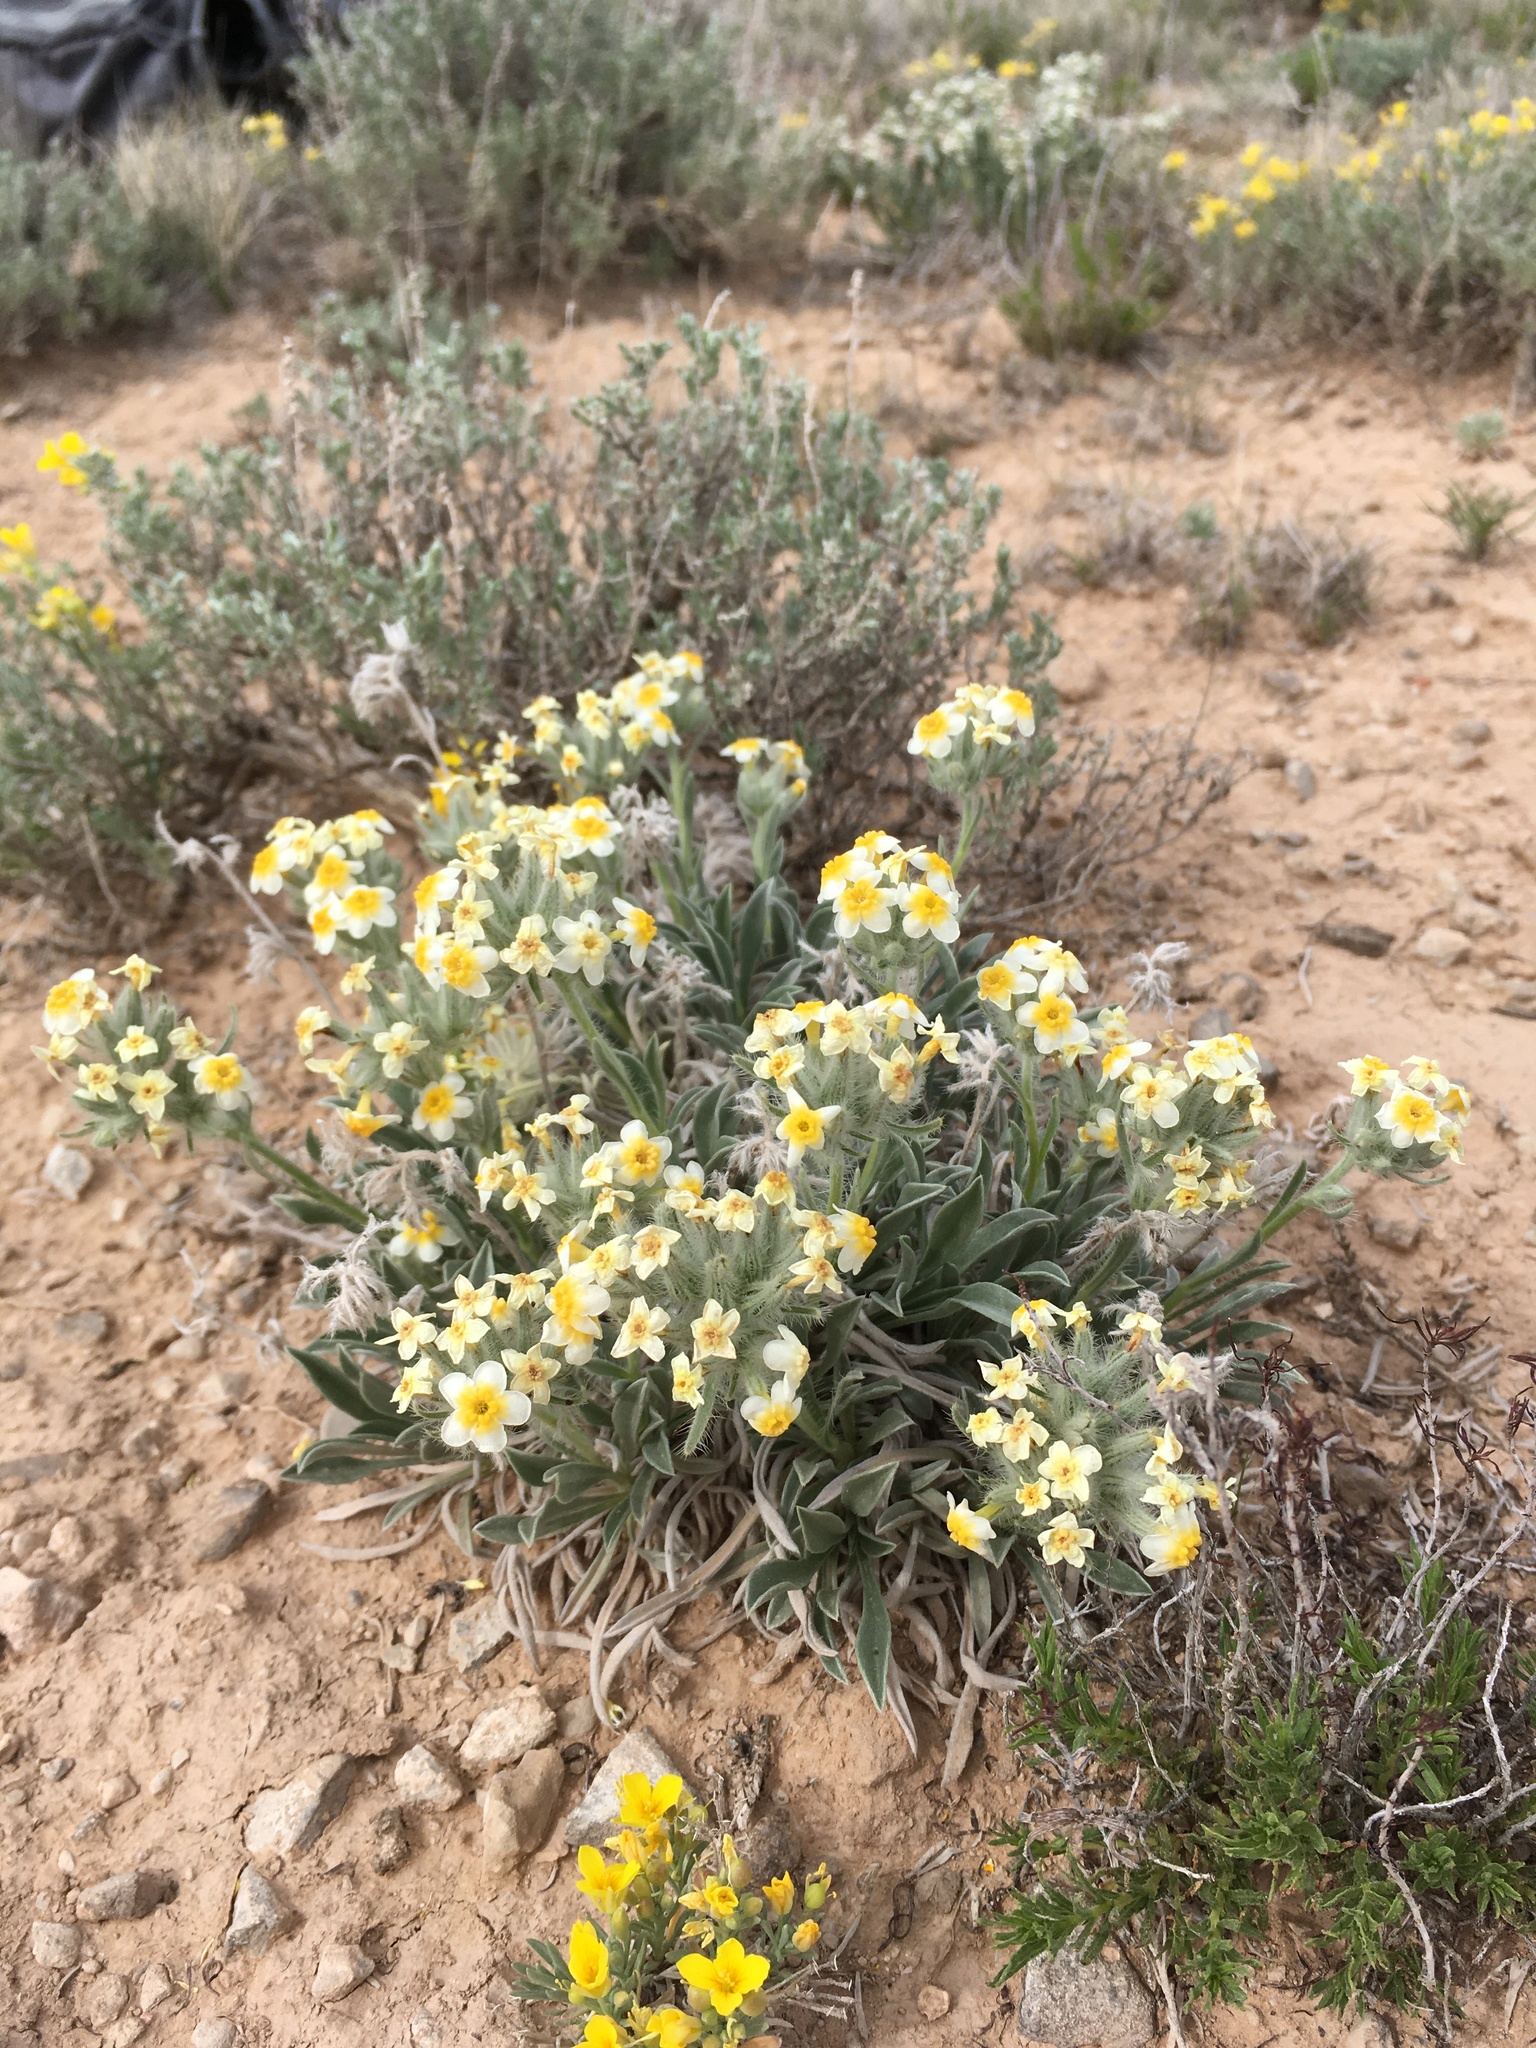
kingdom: Plantae
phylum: Tracheophyta
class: Magnoliopsida
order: Boraginales
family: Boraginaceae
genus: Oreocarya
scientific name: Oreocarya paysonii
